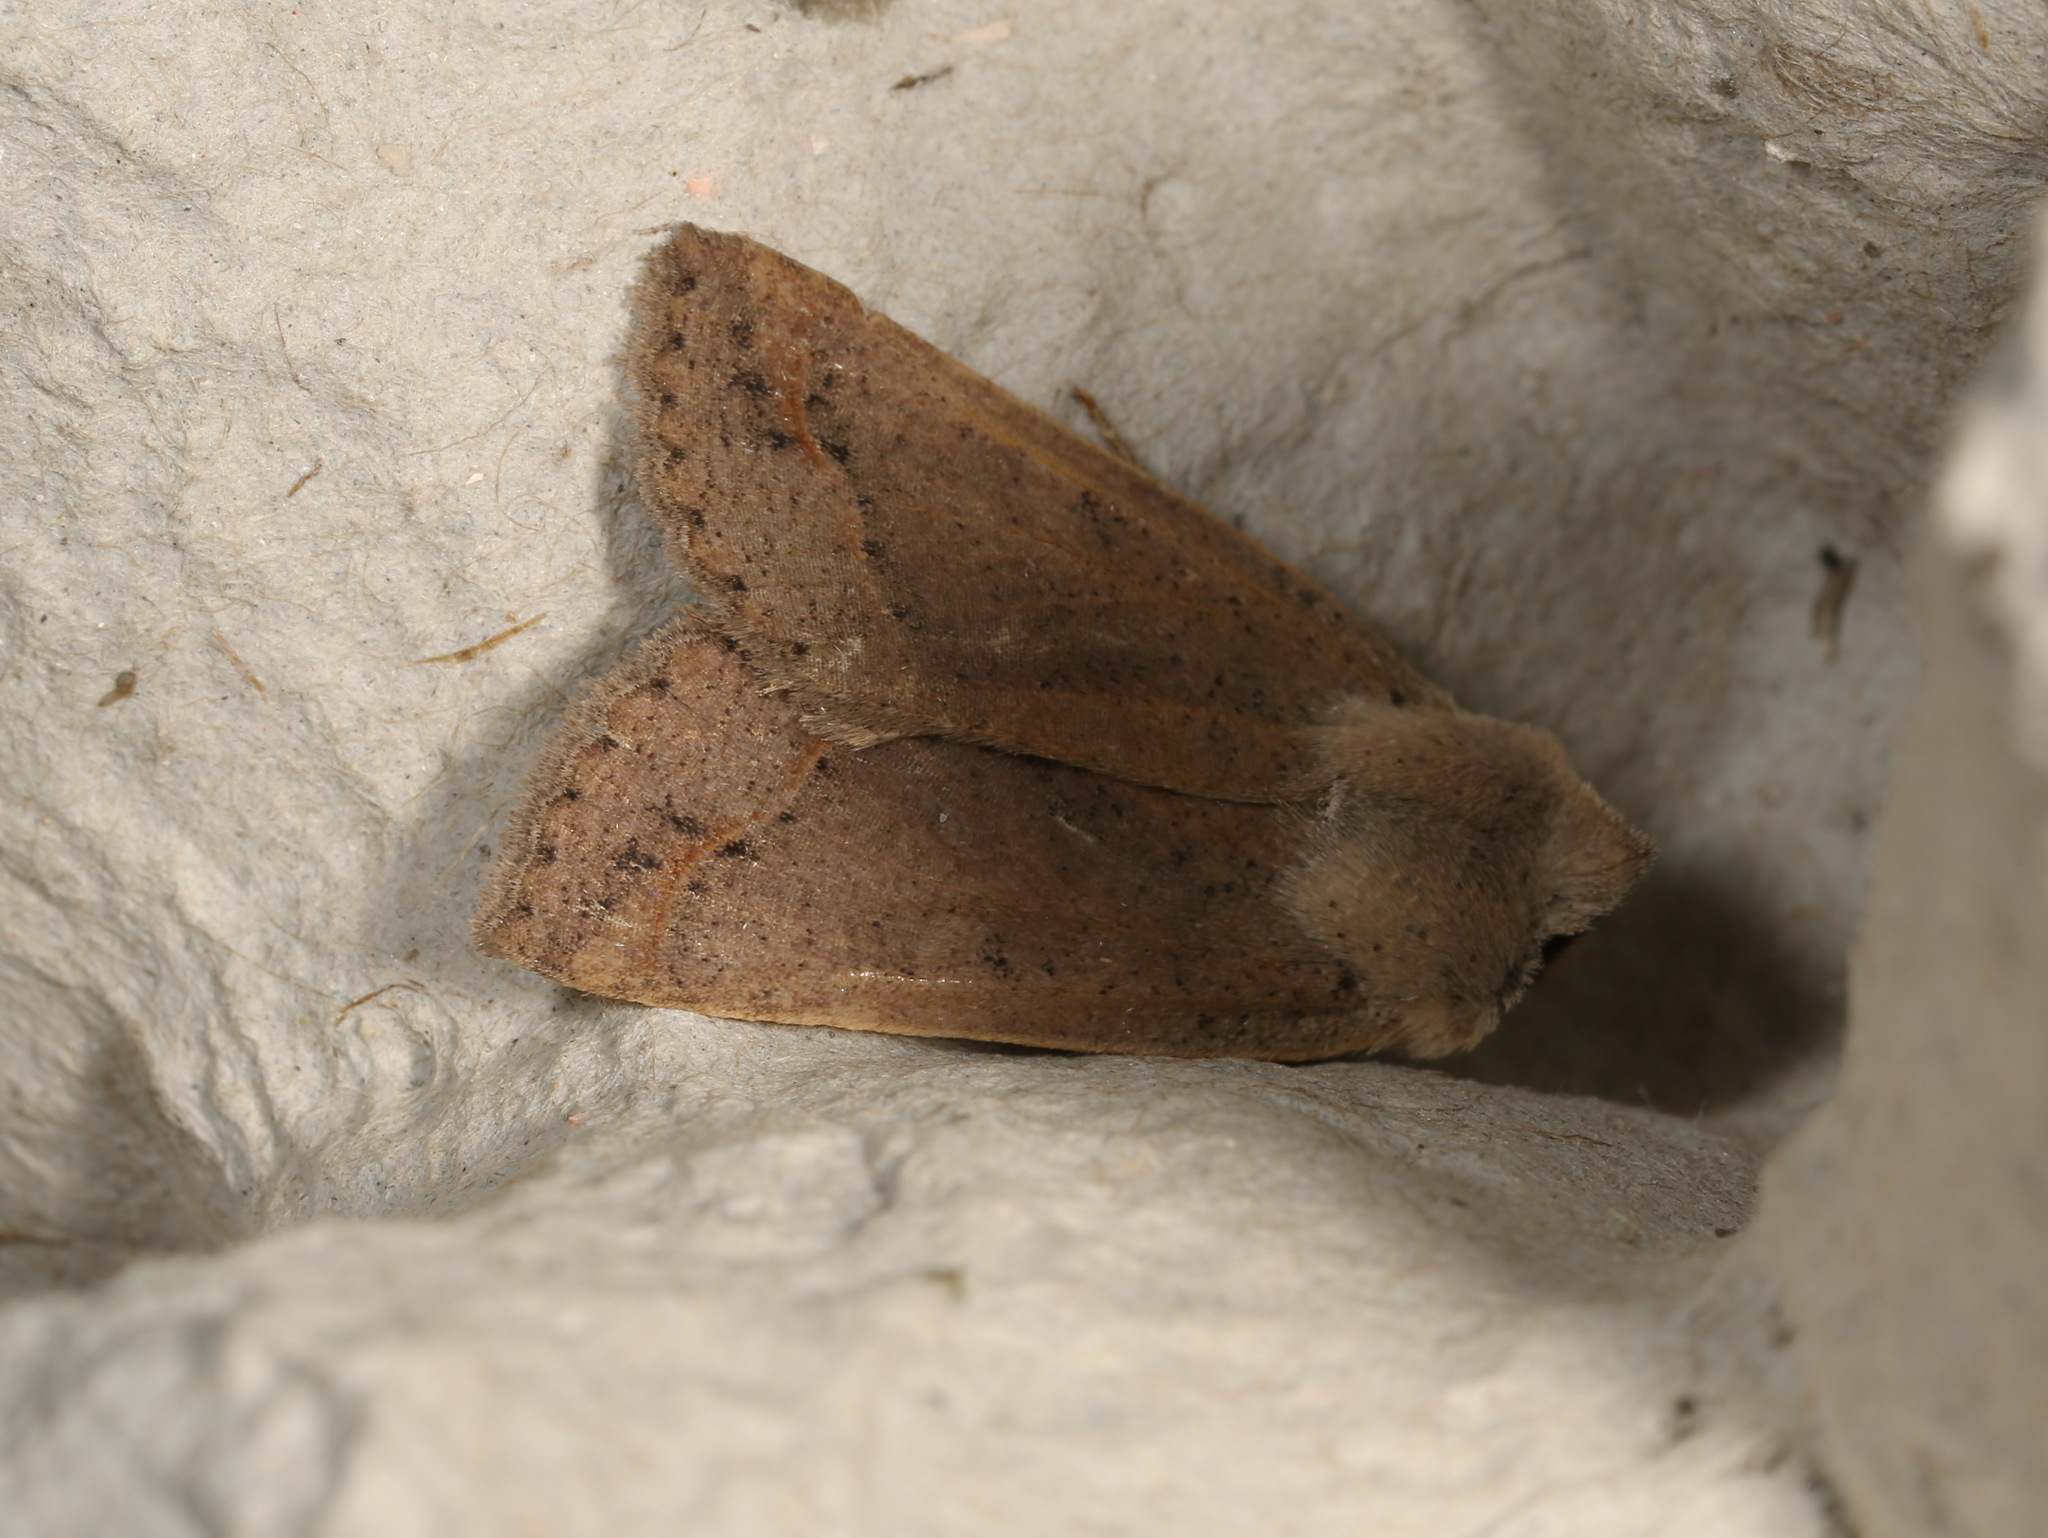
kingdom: Animalia
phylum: Arthropoda
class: Insecta
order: Lepidoptera
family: Erebidae
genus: Pantydia
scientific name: Pantydia sparsa
